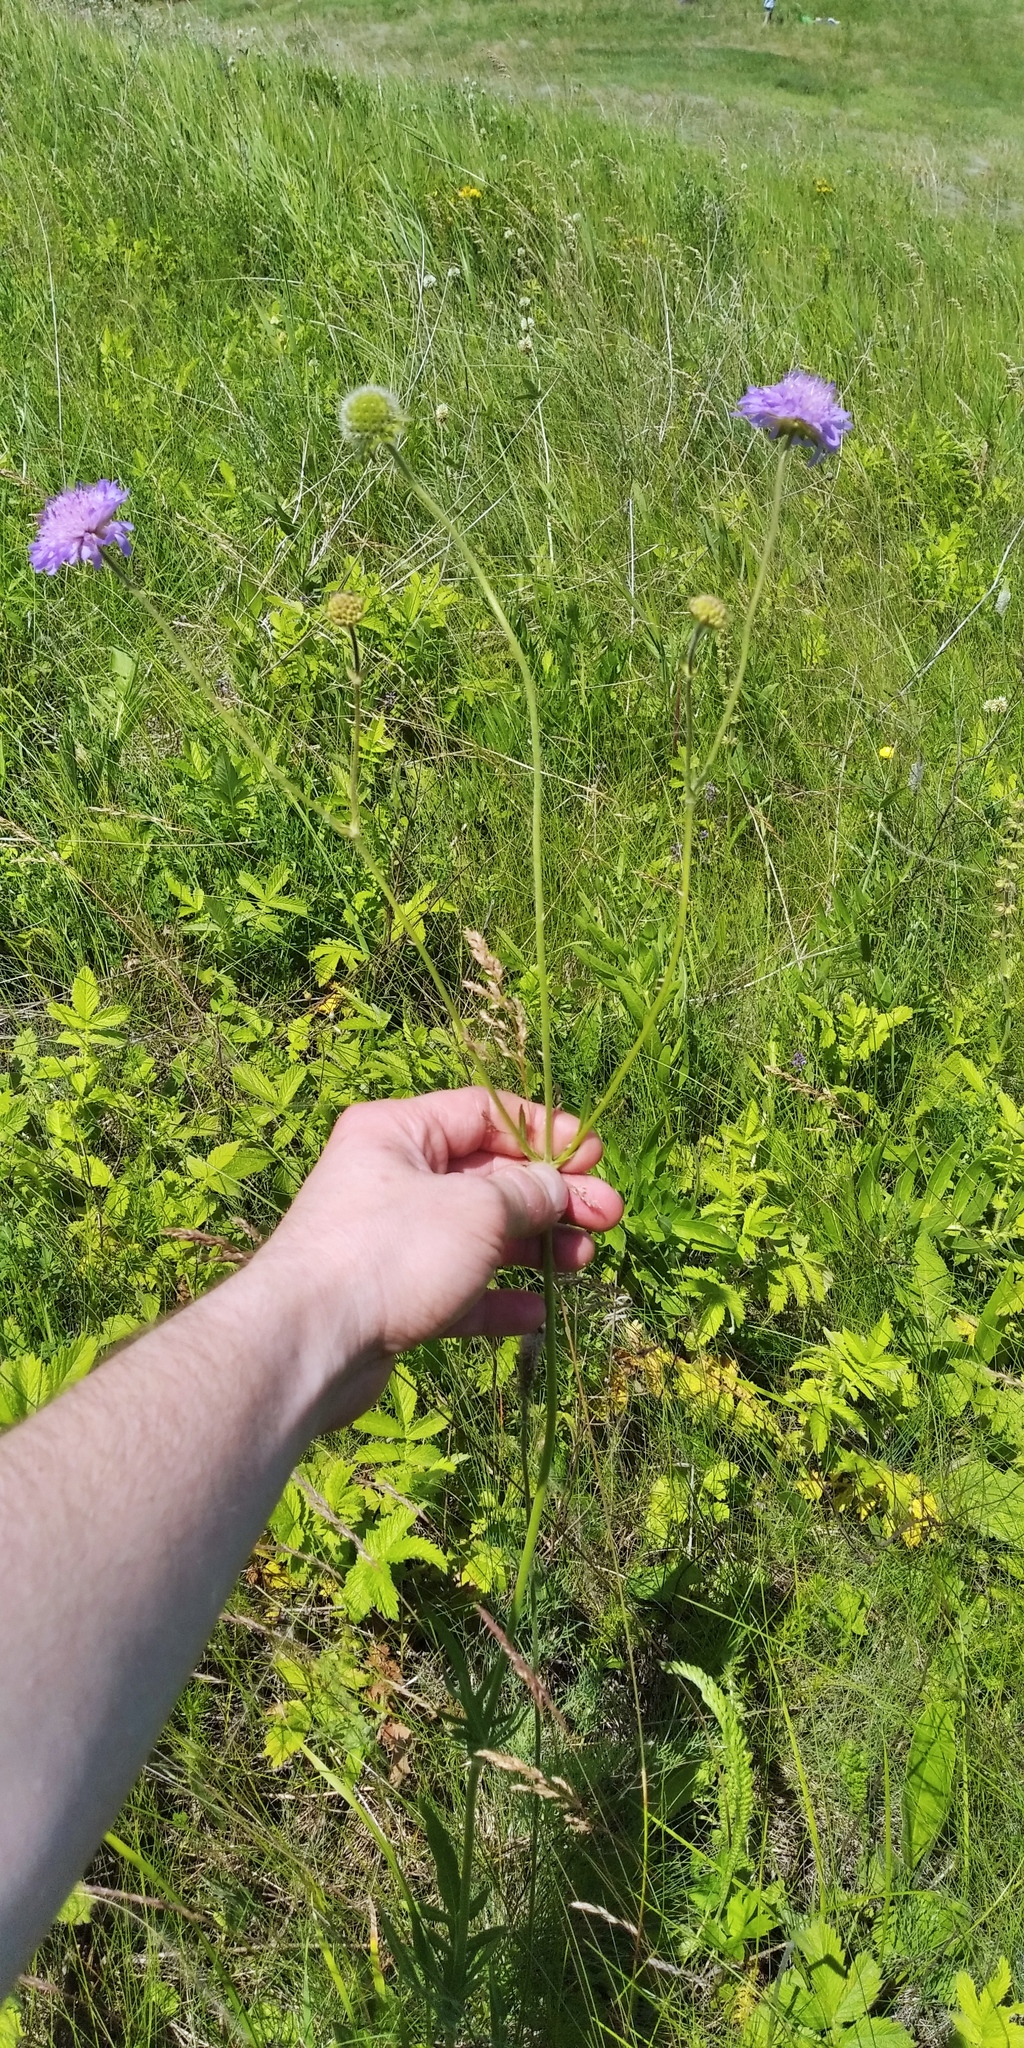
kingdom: Plantae
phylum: Tracheophyta
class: Magnoliopsida
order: Dipsacales
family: Caprifoliaceae
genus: Knautia
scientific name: Knautia arvensis
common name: Field scabiosa
